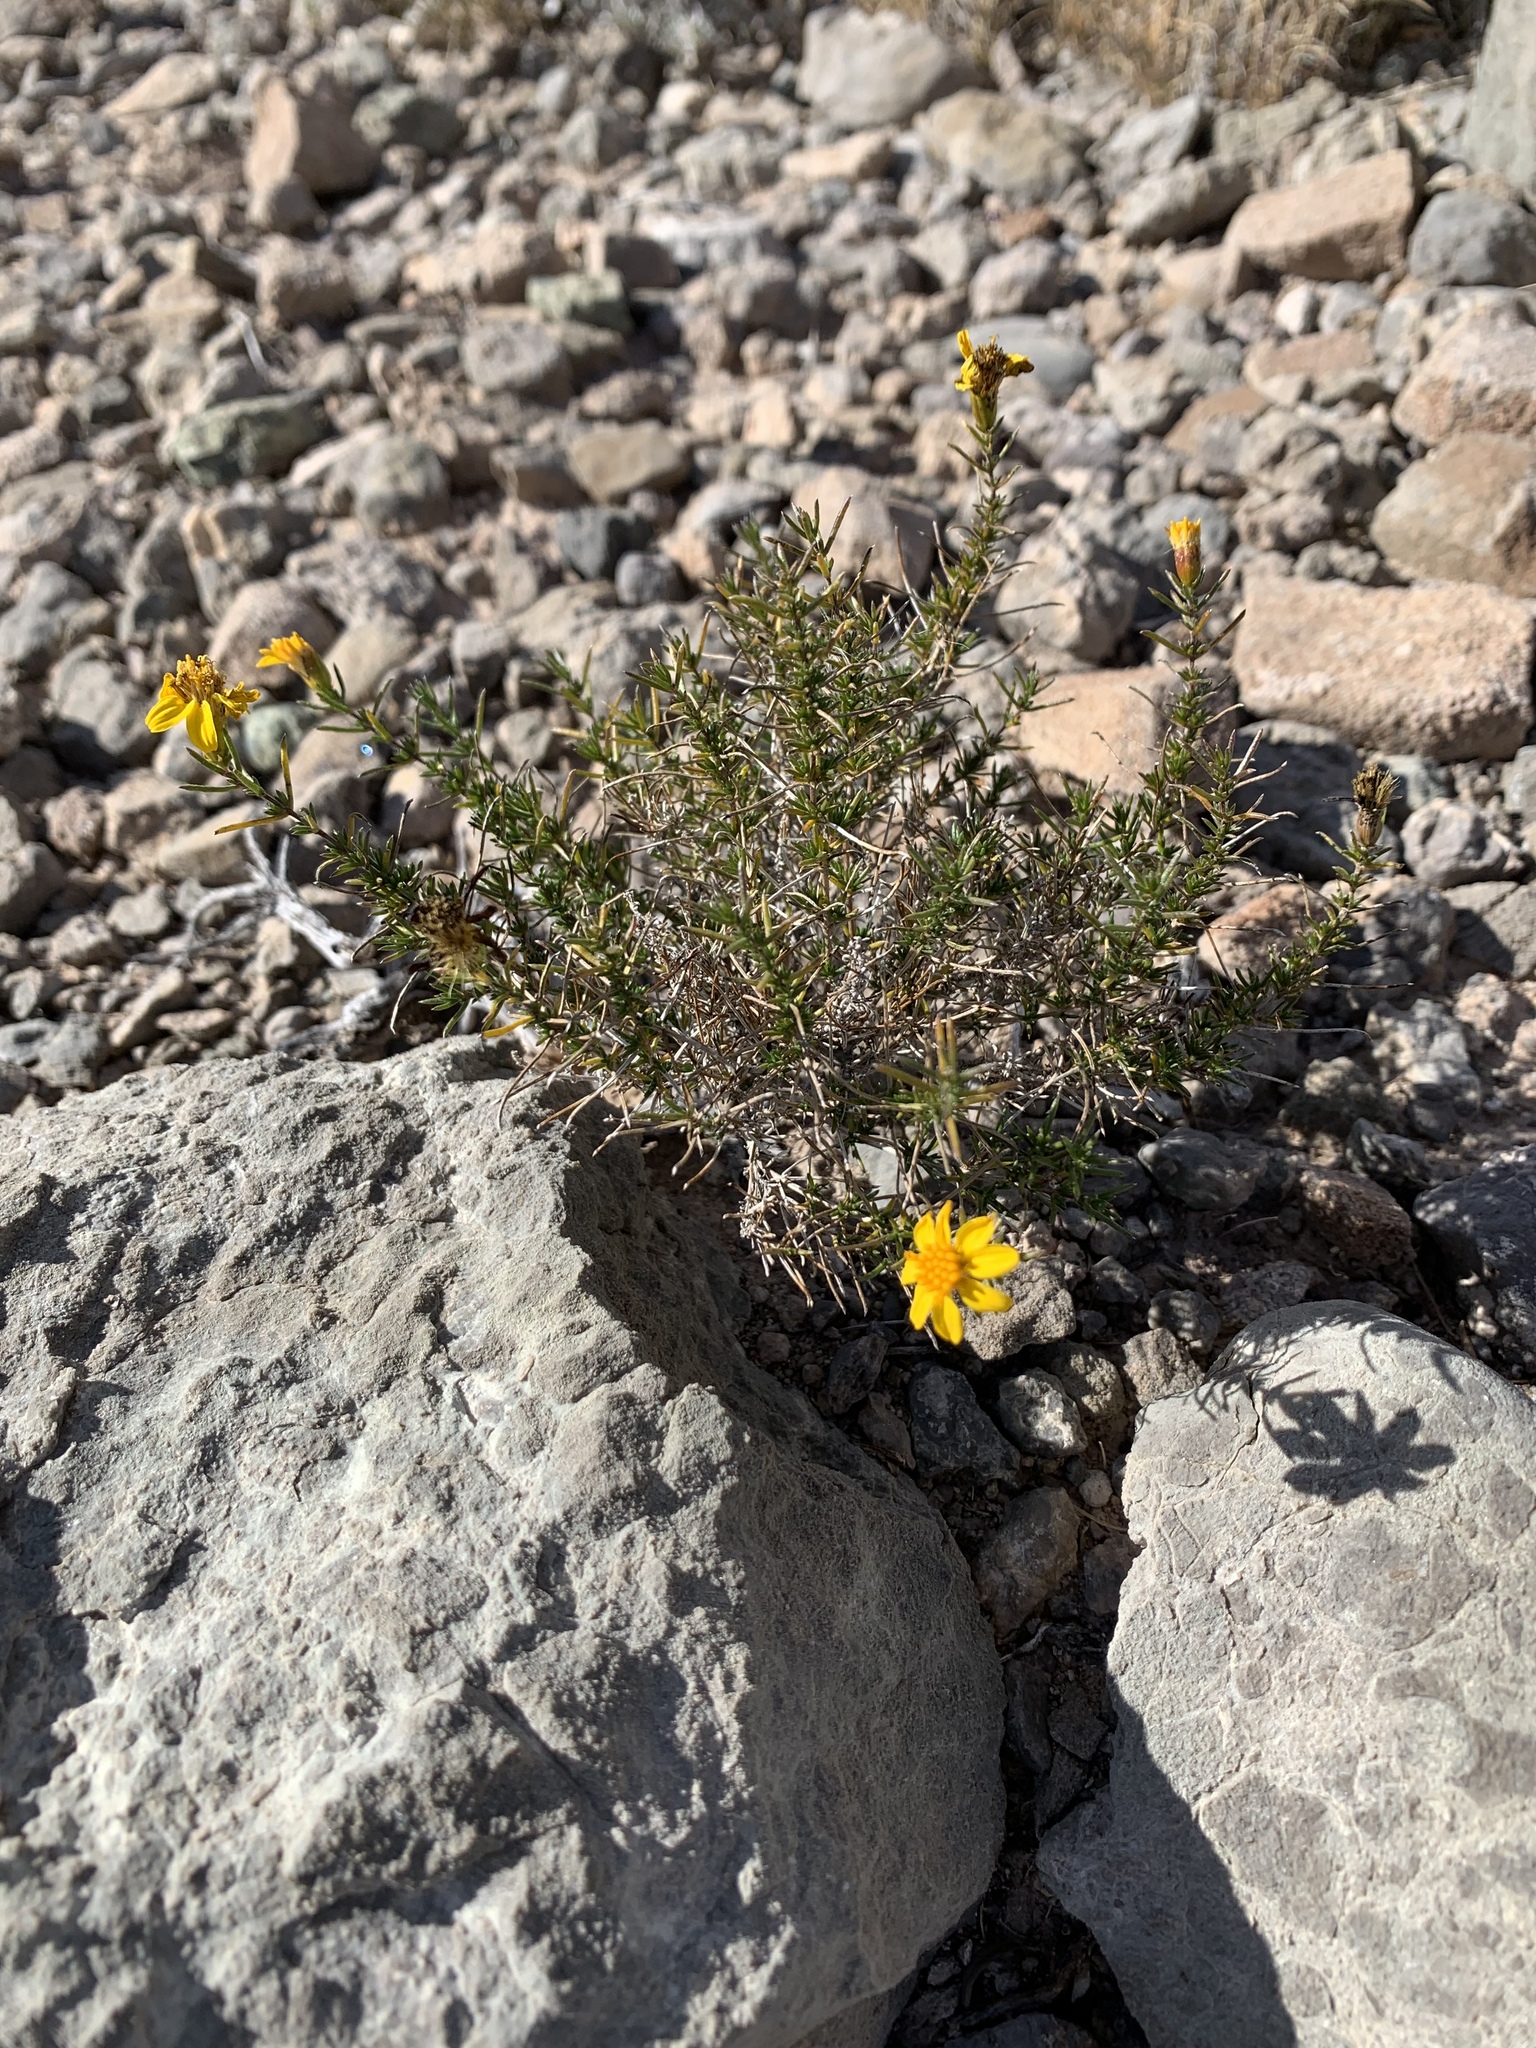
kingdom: Plantae
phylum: Tracheophyta
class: Magnoliopsida
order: Asterales
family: Asteraceae
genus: Thymophylla
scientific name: Thymophylla acerosa
